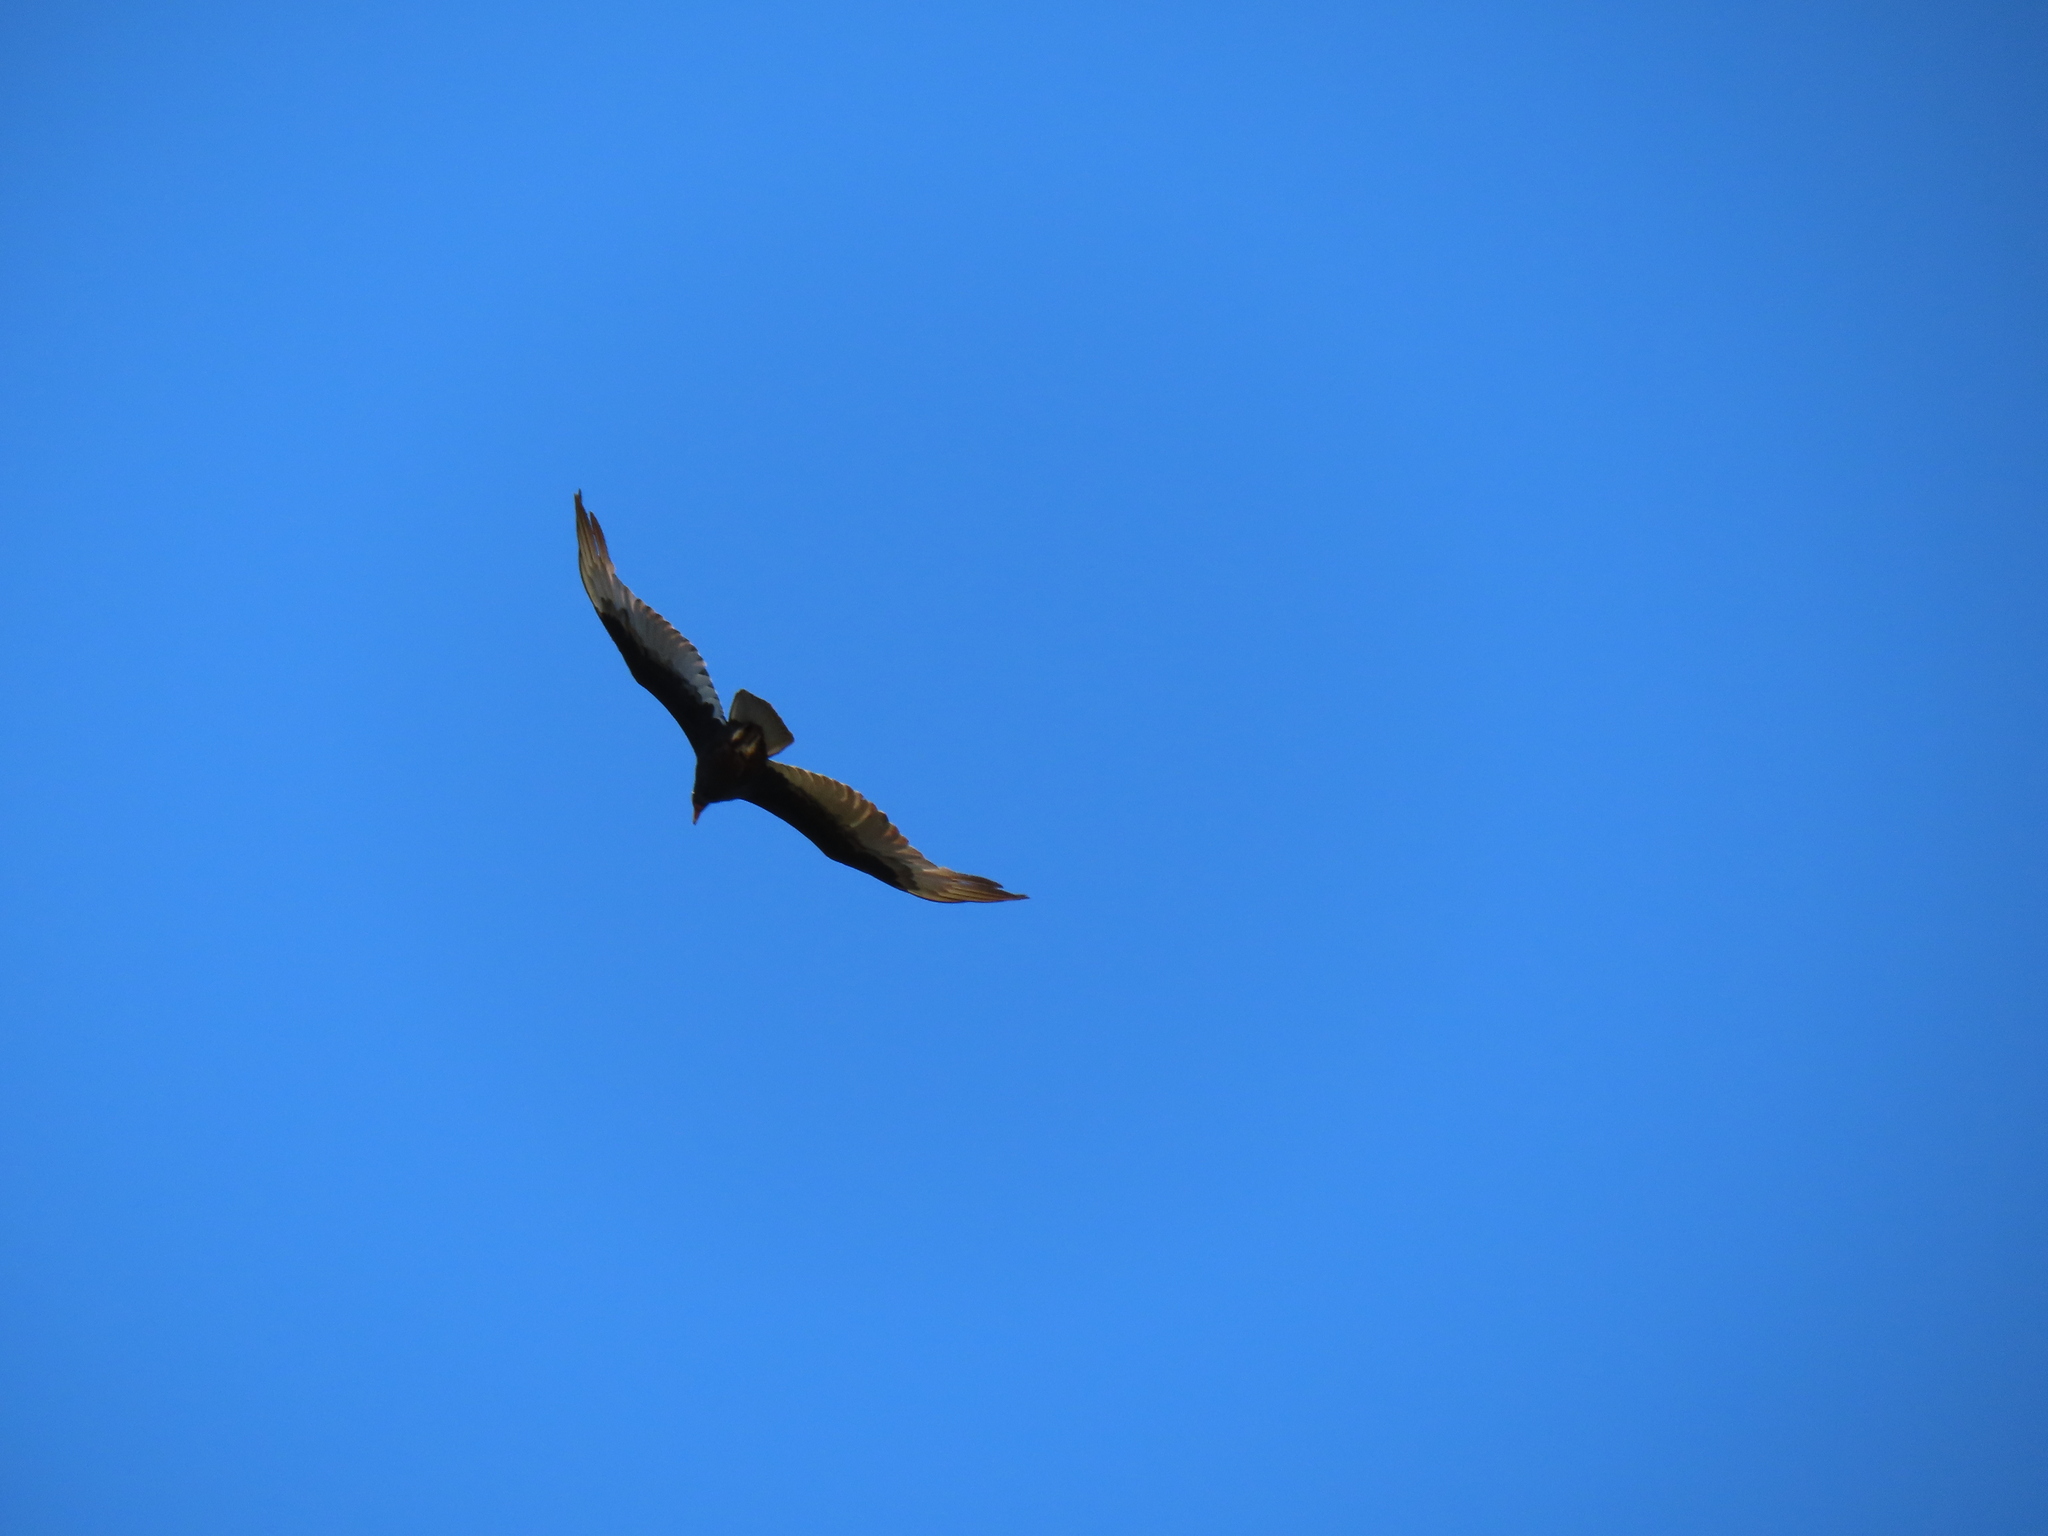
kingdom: Animalia
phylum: Chordata
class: Aves
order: Accipitriformes
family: Cathartidae
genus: Cathartes
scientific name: Cathartes aura
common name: Turkey vulture
